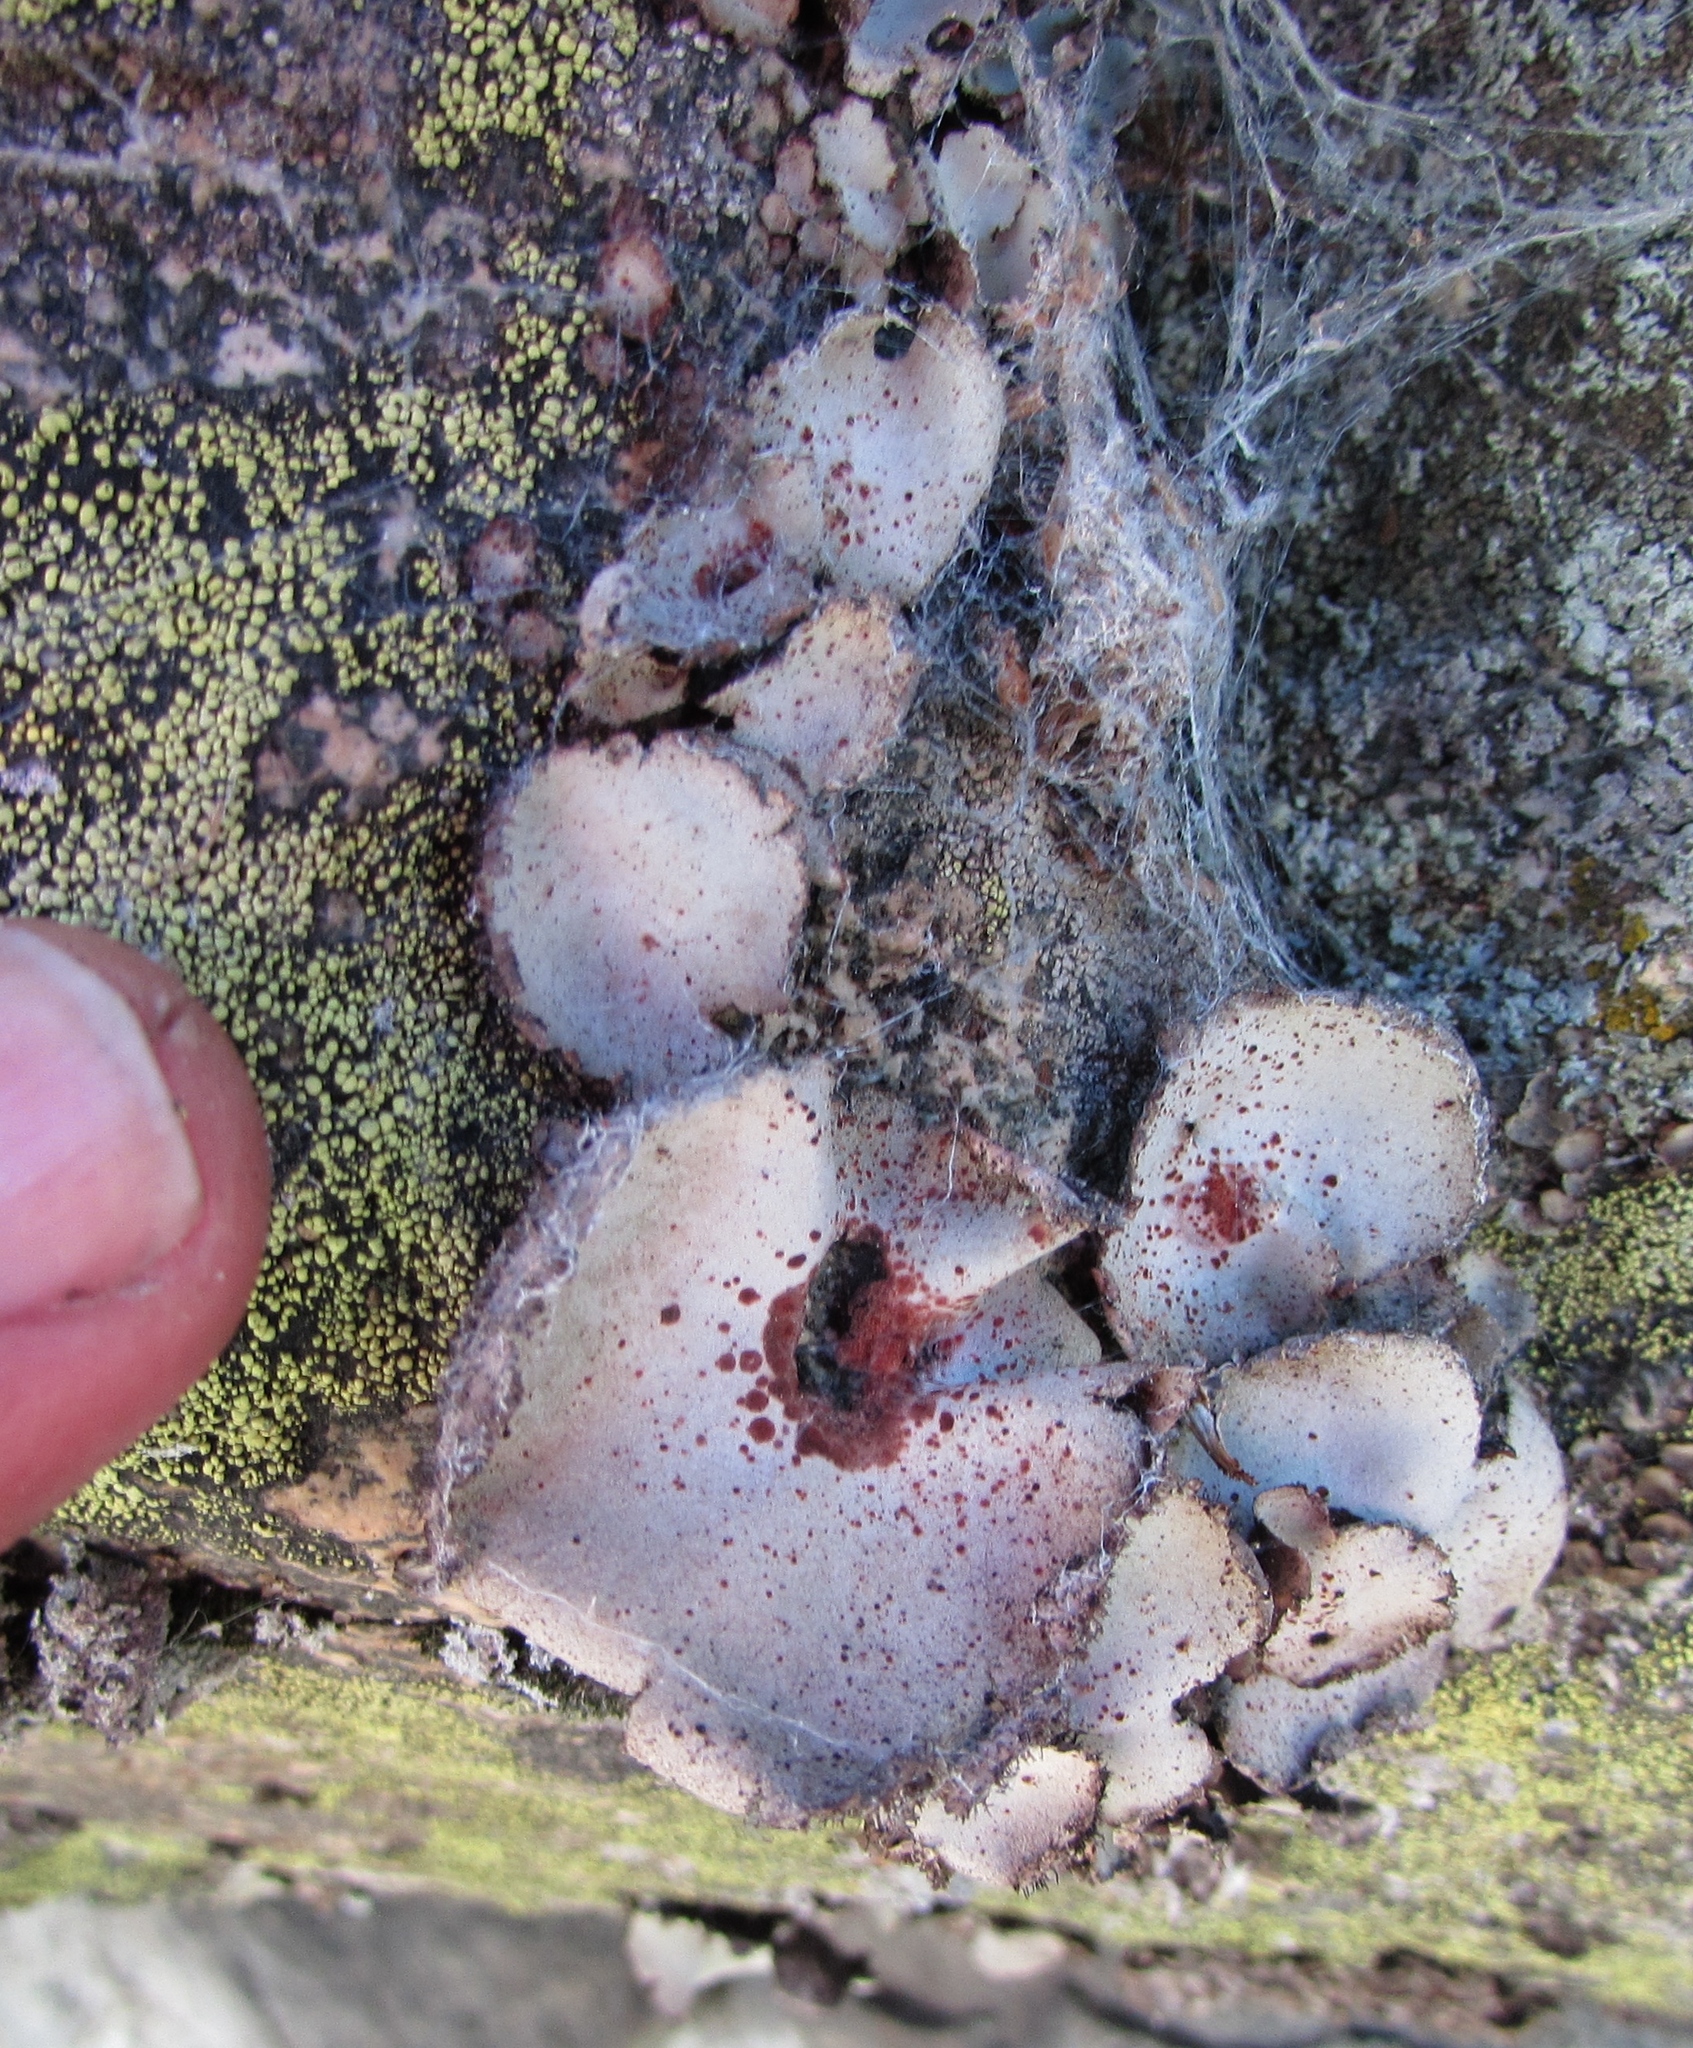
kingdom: Fungi
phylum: Ascomycota
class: Lecanoromycetes
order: Umbilicariales
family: Umbilicariaceae
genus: Umbilicaria
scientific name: Umbilicaria americana
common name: Frosted rock tripe
